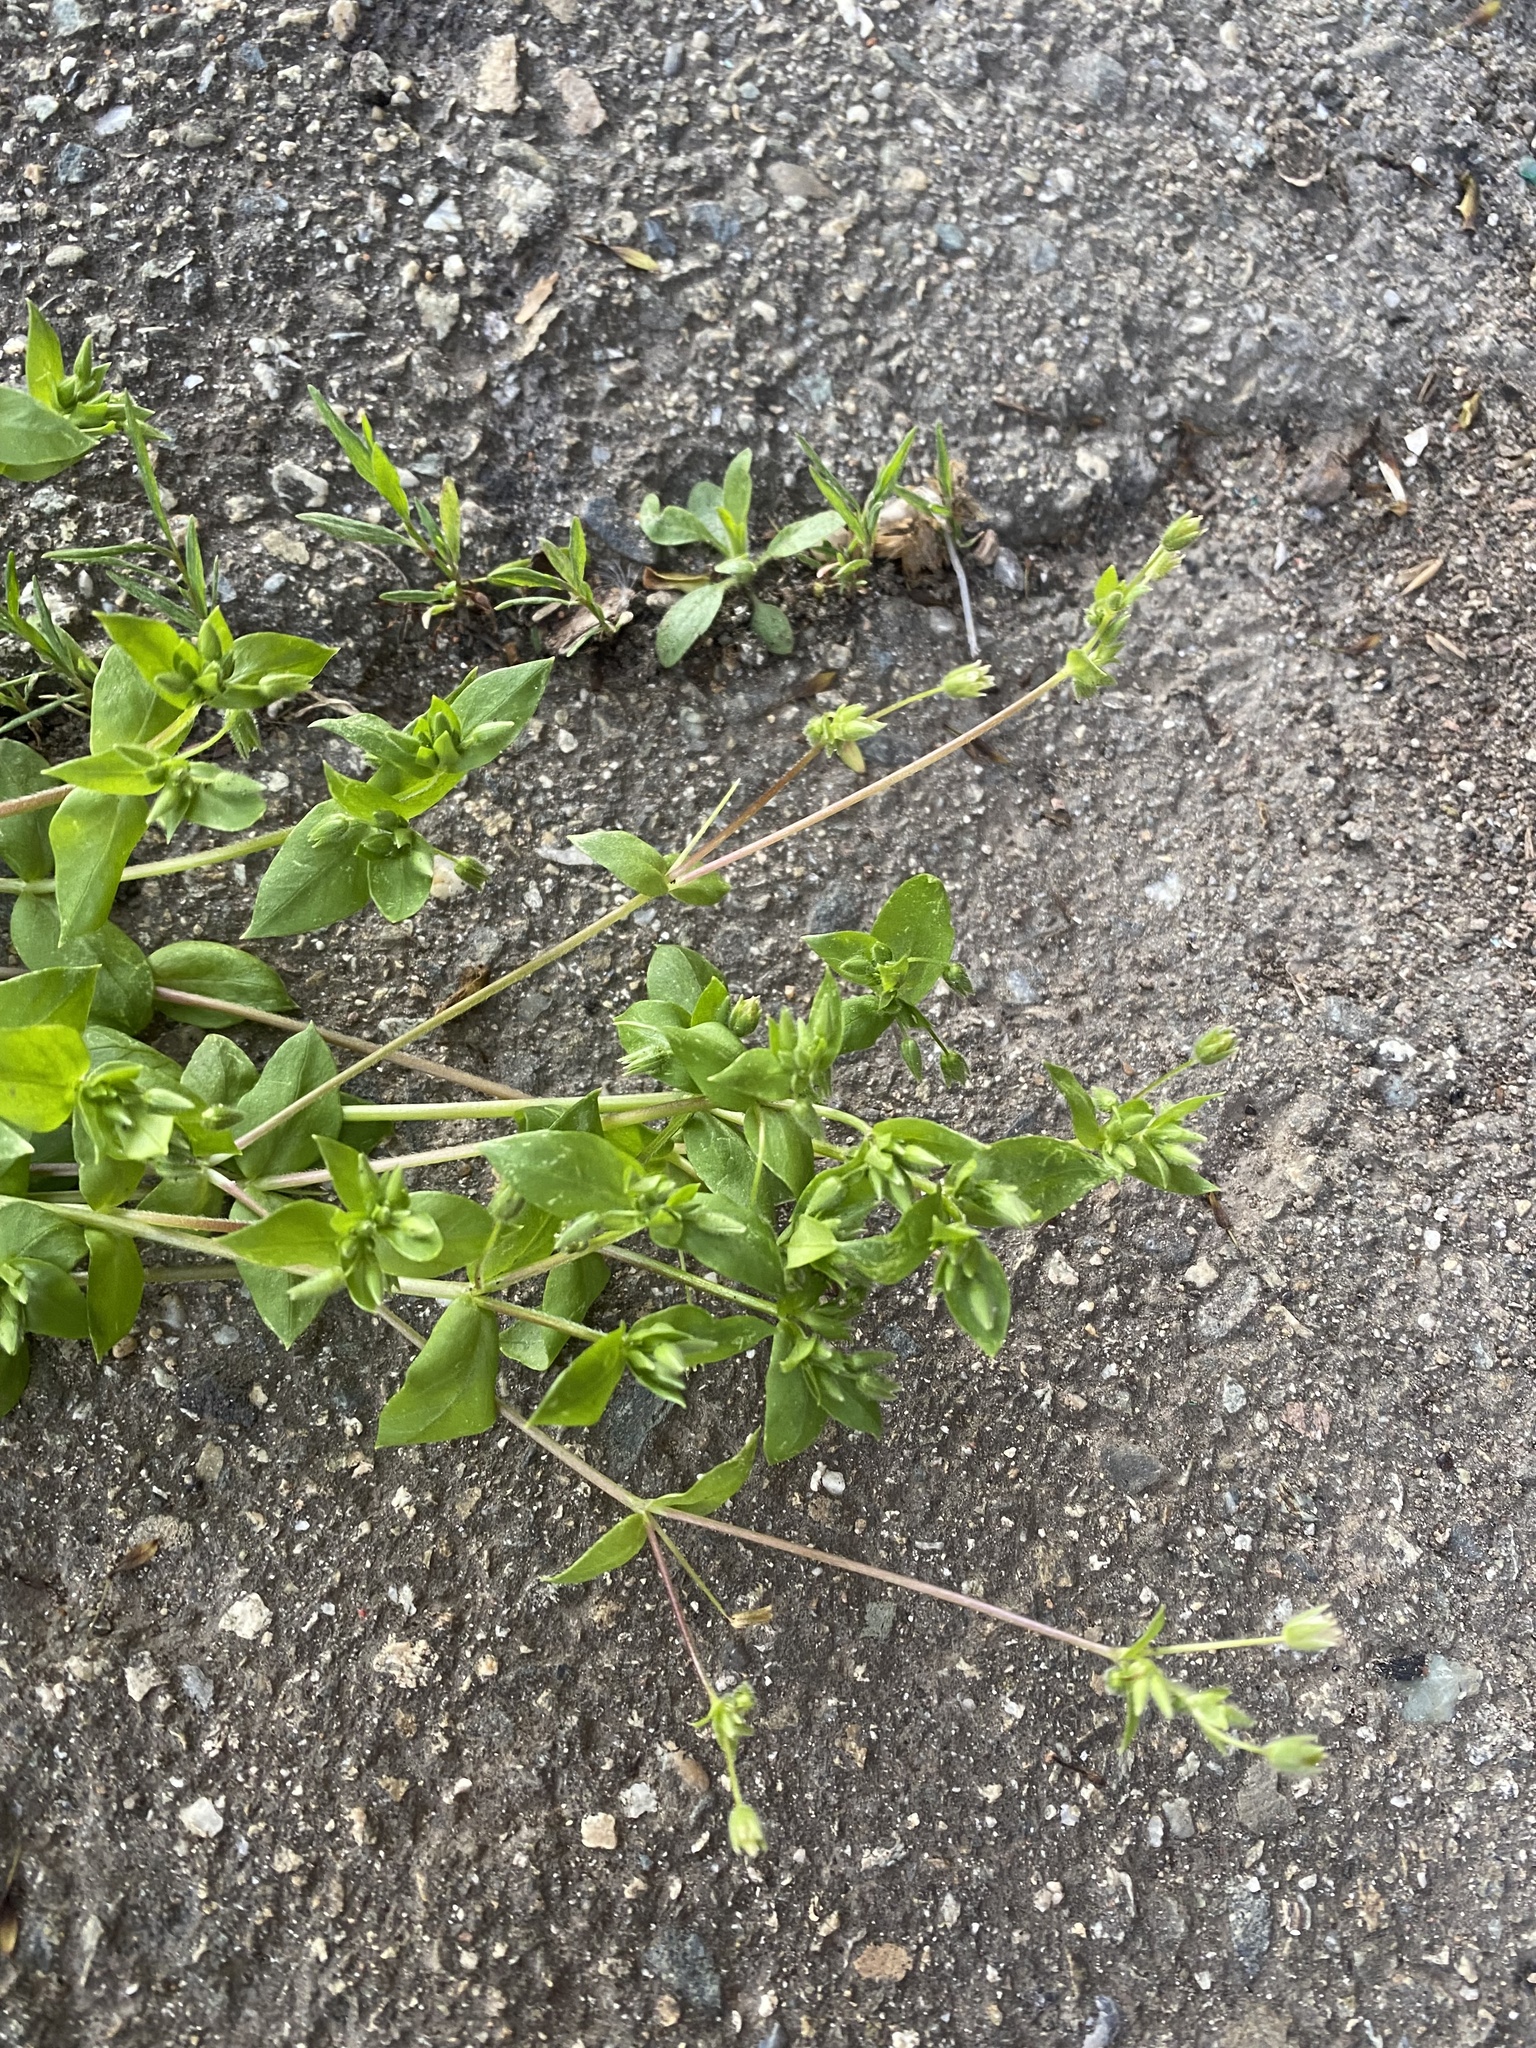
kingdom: Plantae
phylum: Tracheophyta
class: Magnoliopsida
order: Caryophyllales
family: Caryophyllaceae
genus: Stellaria
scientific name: Stellaria media
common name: Common chickweed
